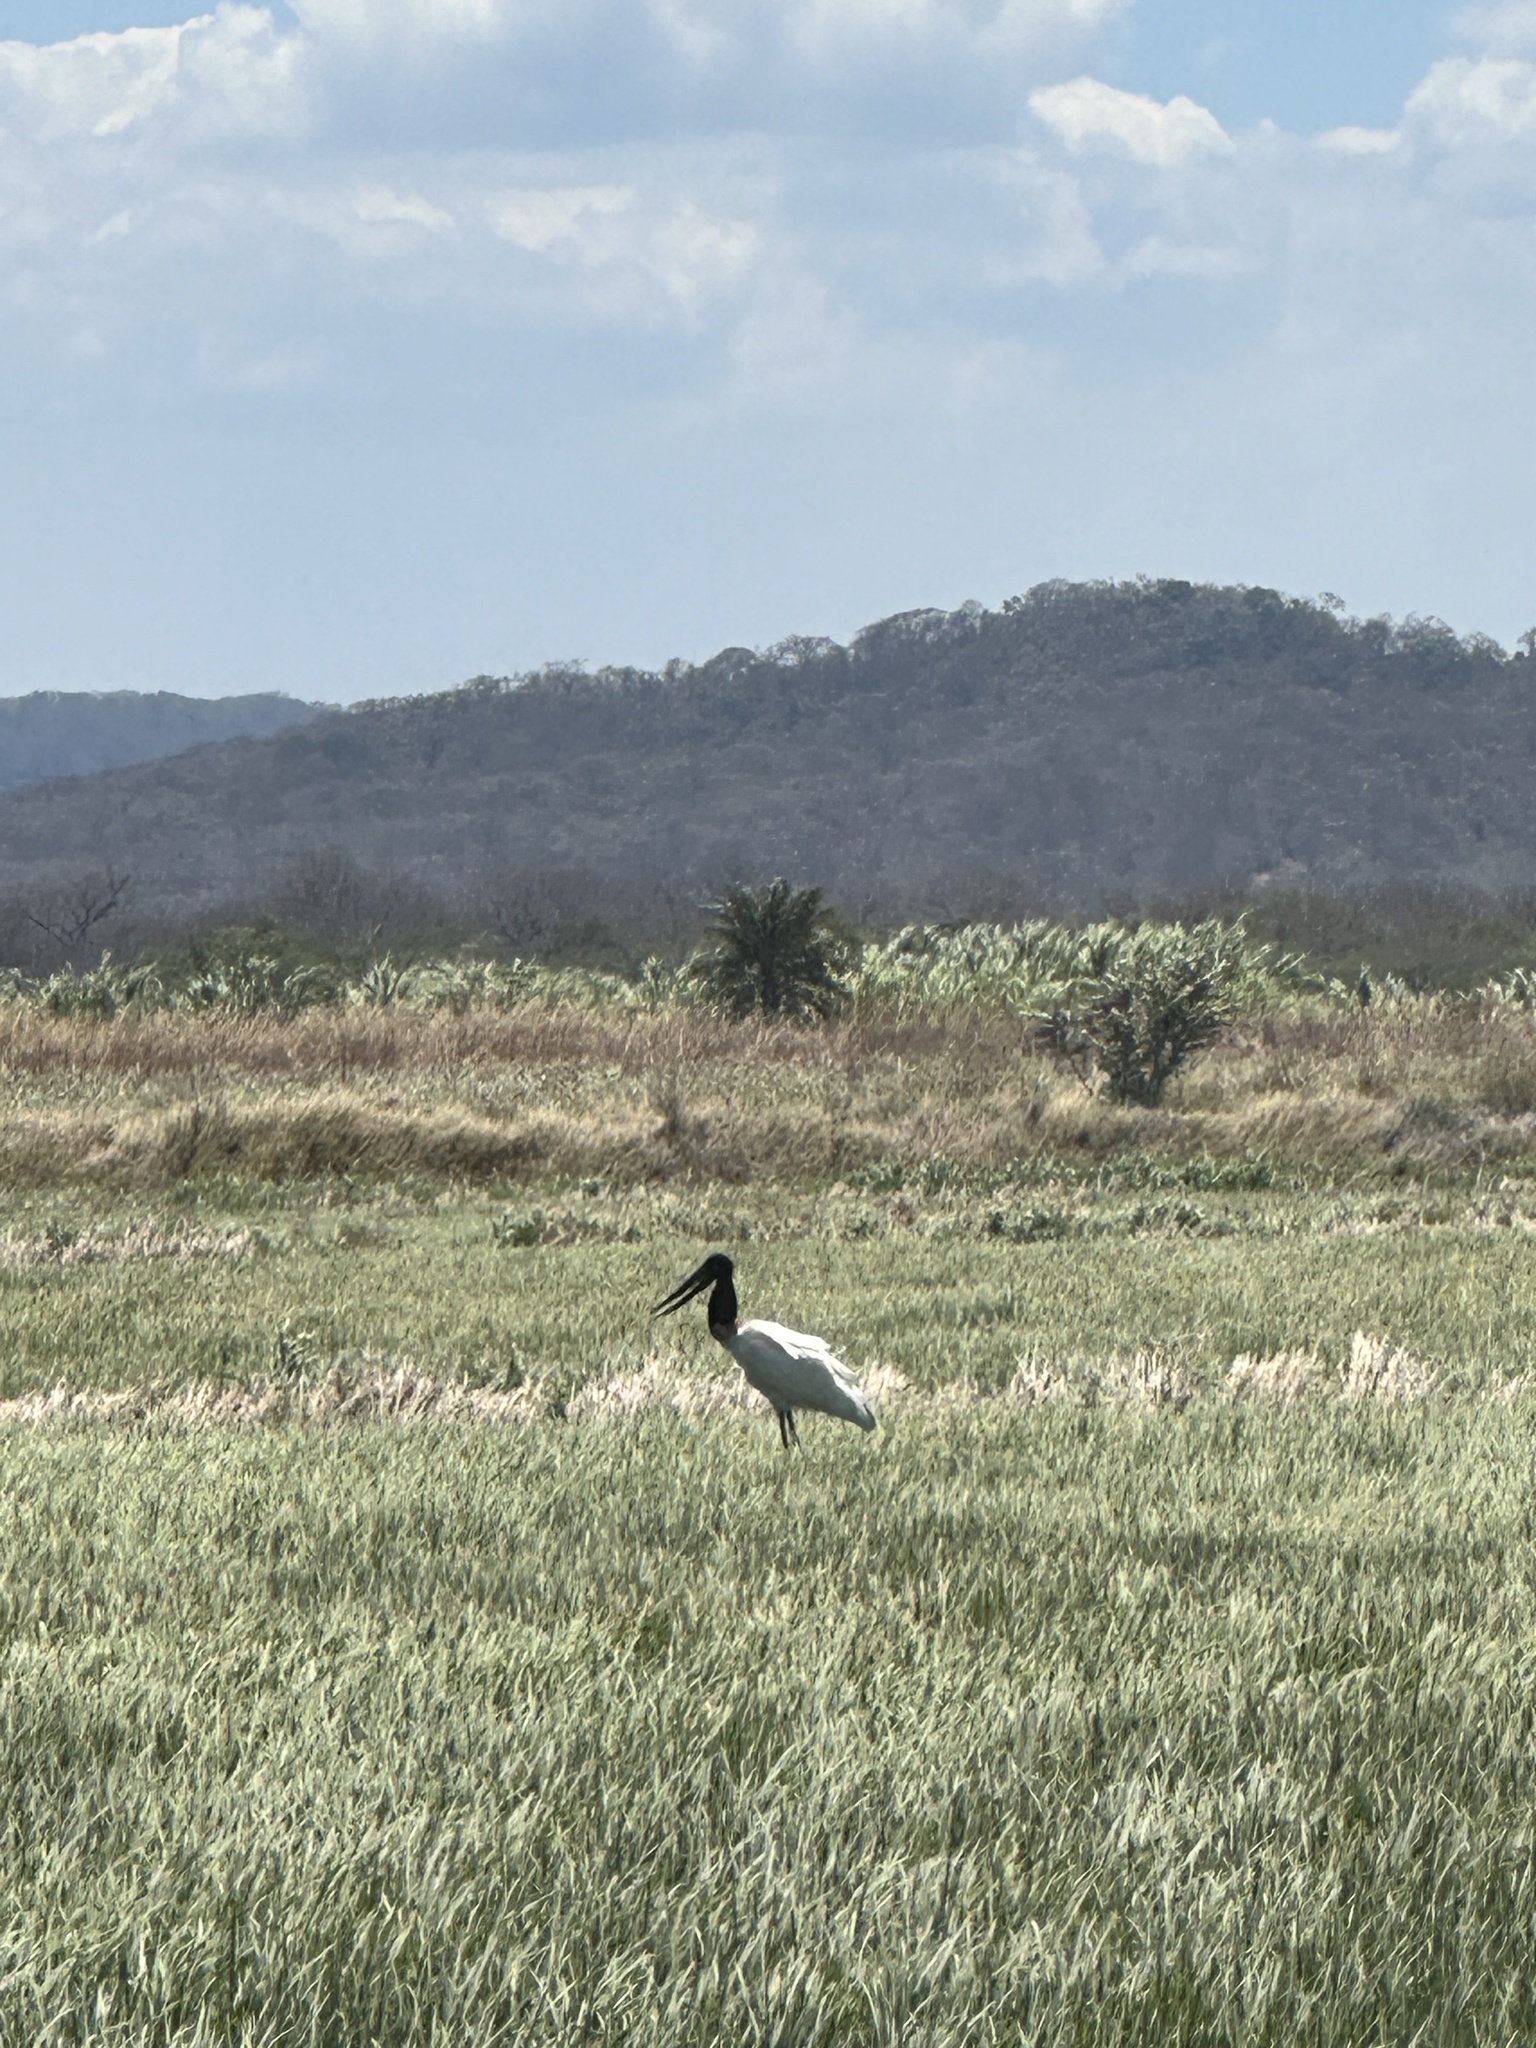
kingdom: Animalia
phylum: Chordata
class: Aves
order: Ciconiiformes
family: Ciconiidae
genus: Jabiru
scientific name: Jabiru mycteria
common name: Jabiru
